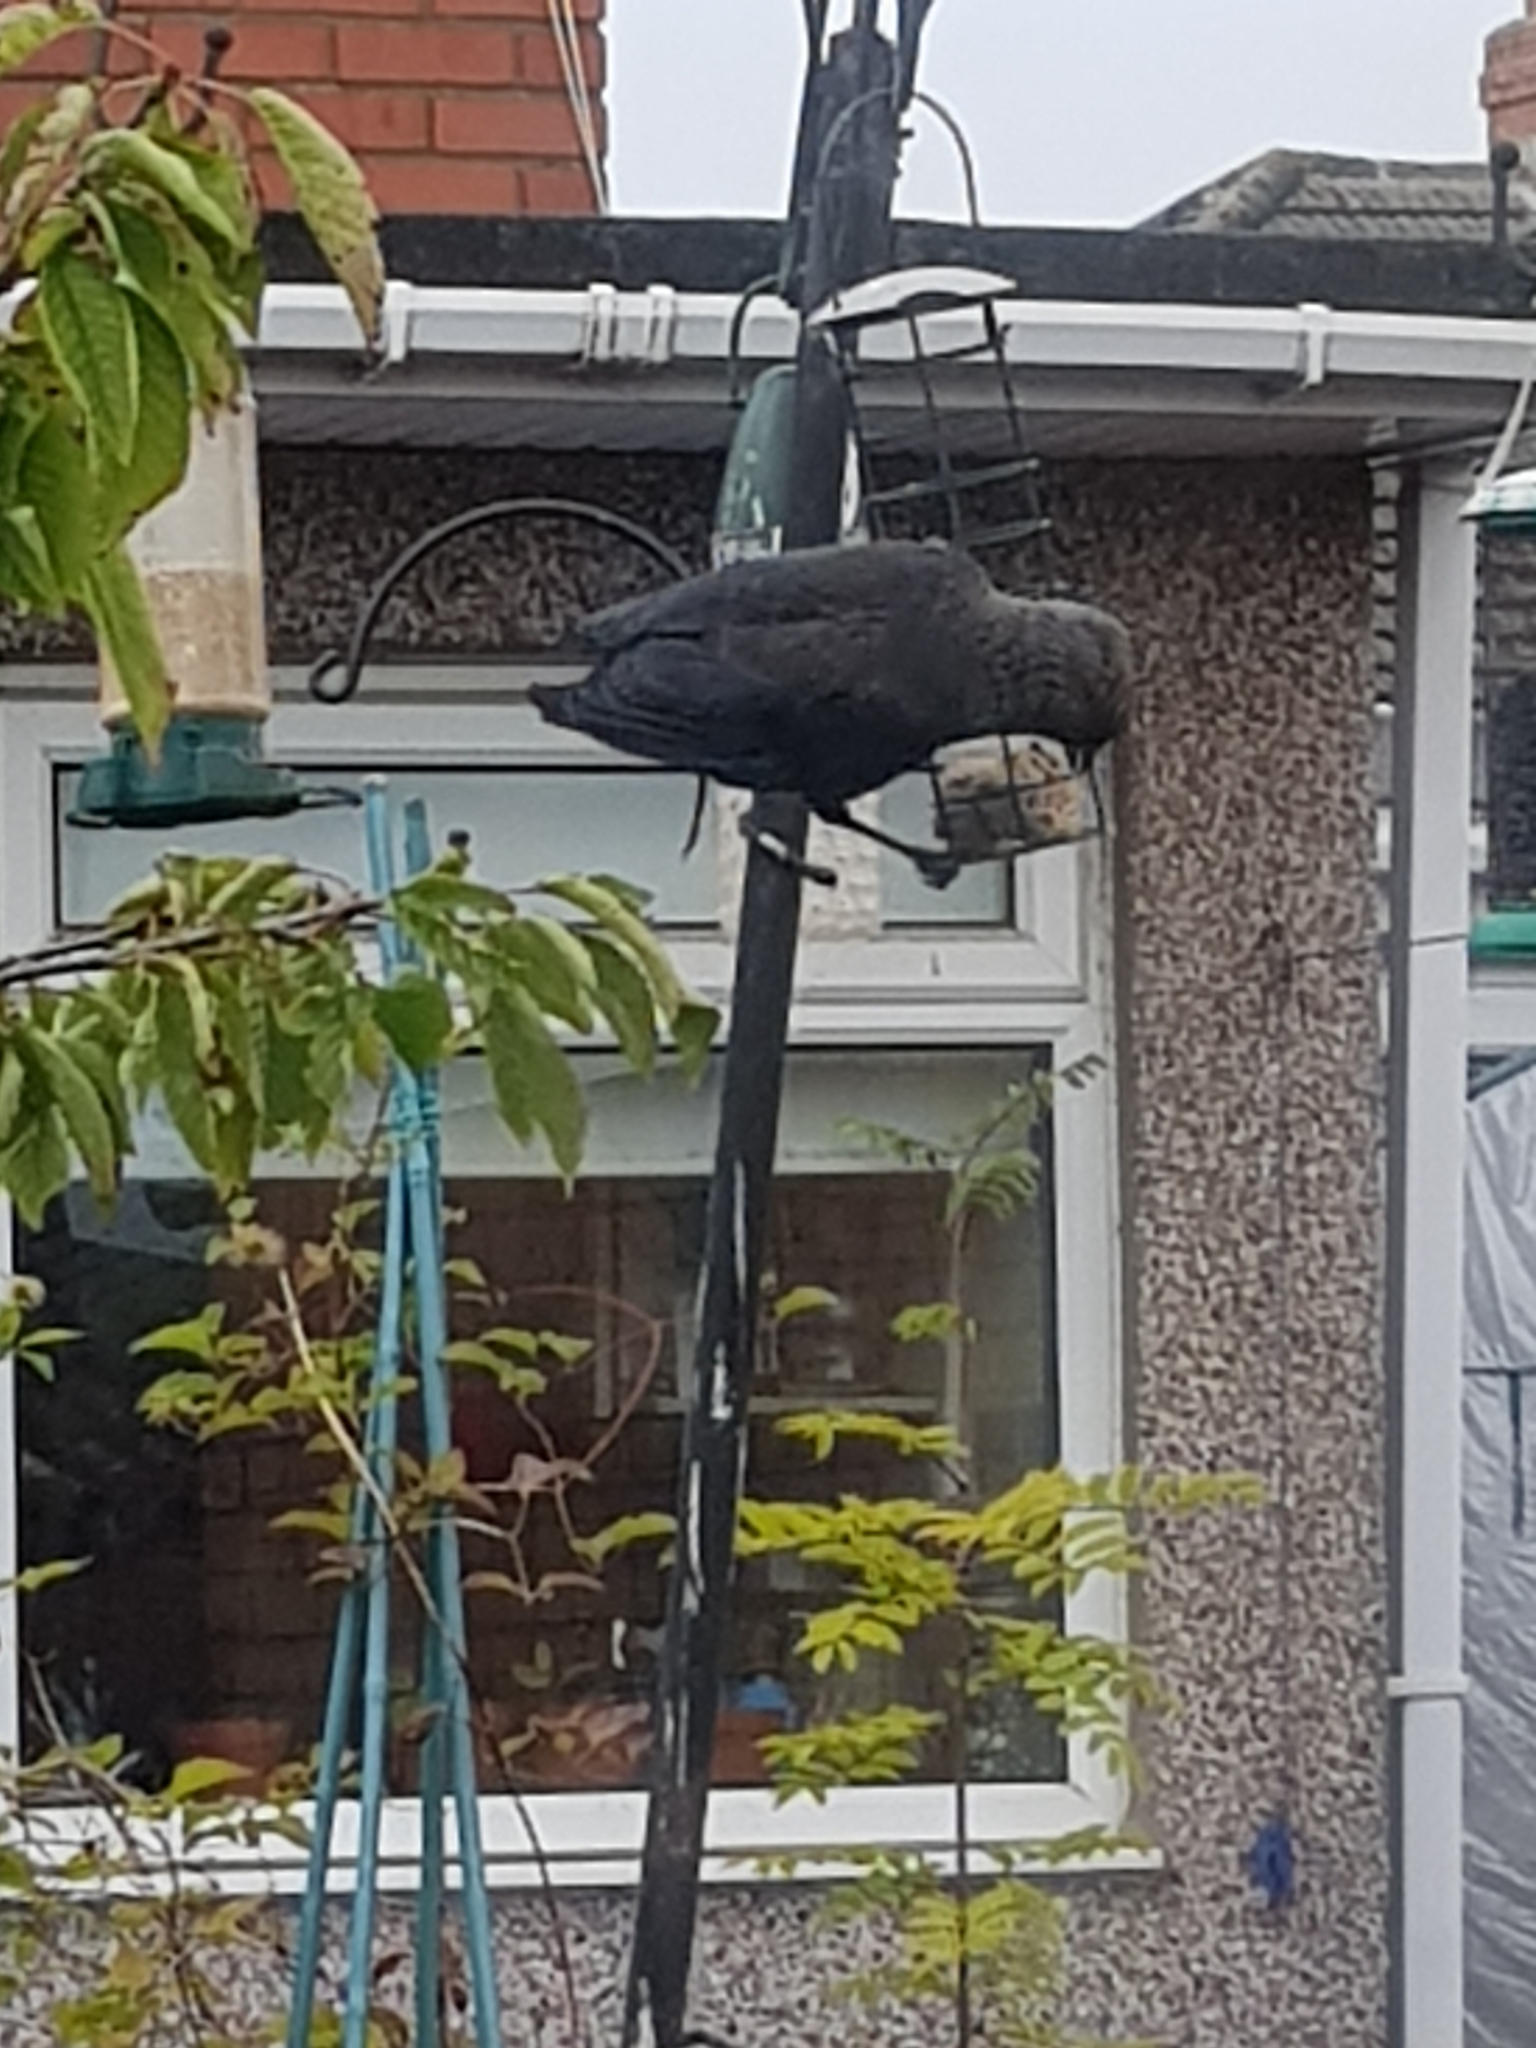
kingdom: Animalia
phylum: Chordata
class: Aves
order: Passeriformes
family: Corvidae
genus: Coloeus
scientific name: Coloeus monedula
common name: Western jackdaw
